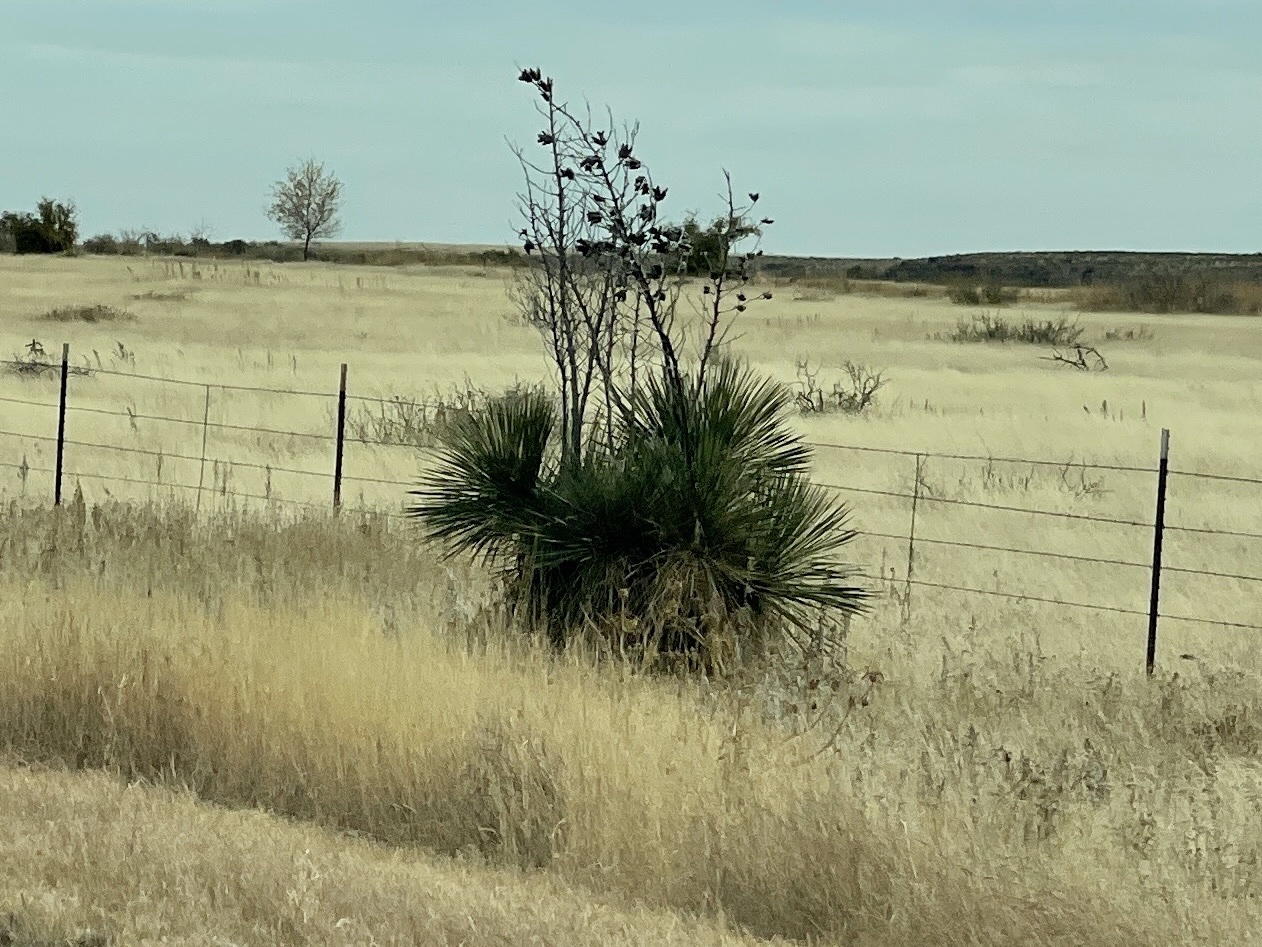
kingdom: Plantae
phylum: Tracheophyta
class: Liliopsida
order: Asparagales
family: Asparagaceae
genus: Yucca
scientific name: Yucca elata
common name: Palmella
